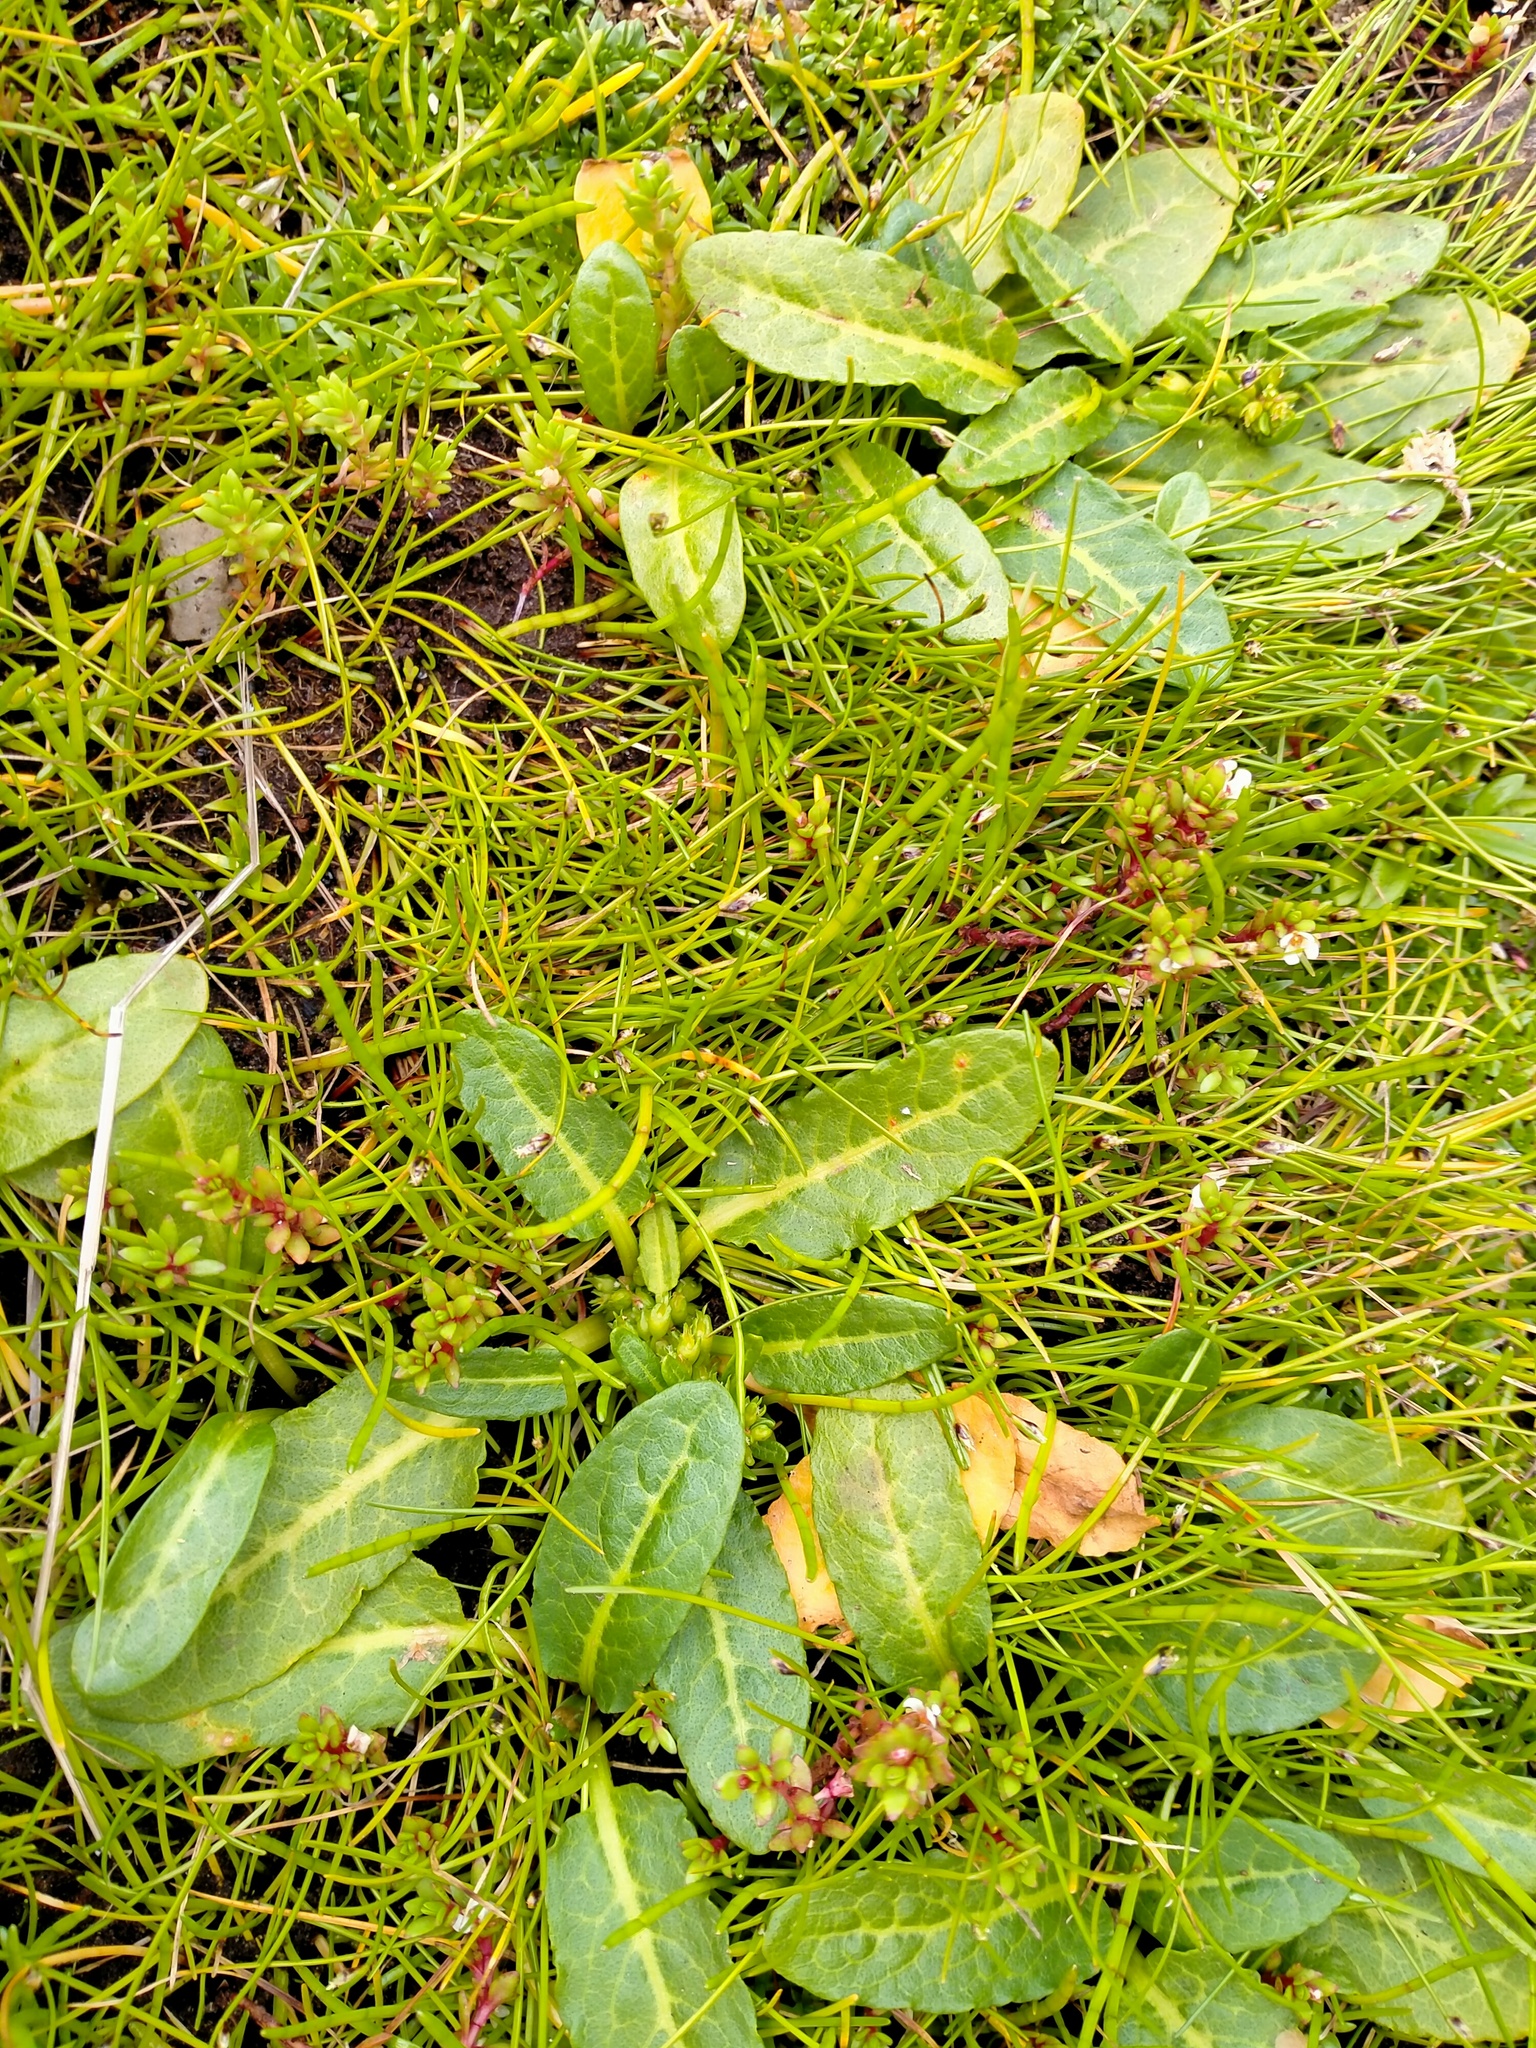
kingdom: Plantae
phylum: Tracheophyta
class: Magnoliopsida
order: Caryophyllales
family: Polygonaceae
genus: Rumex
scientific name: Rumex neglectus
